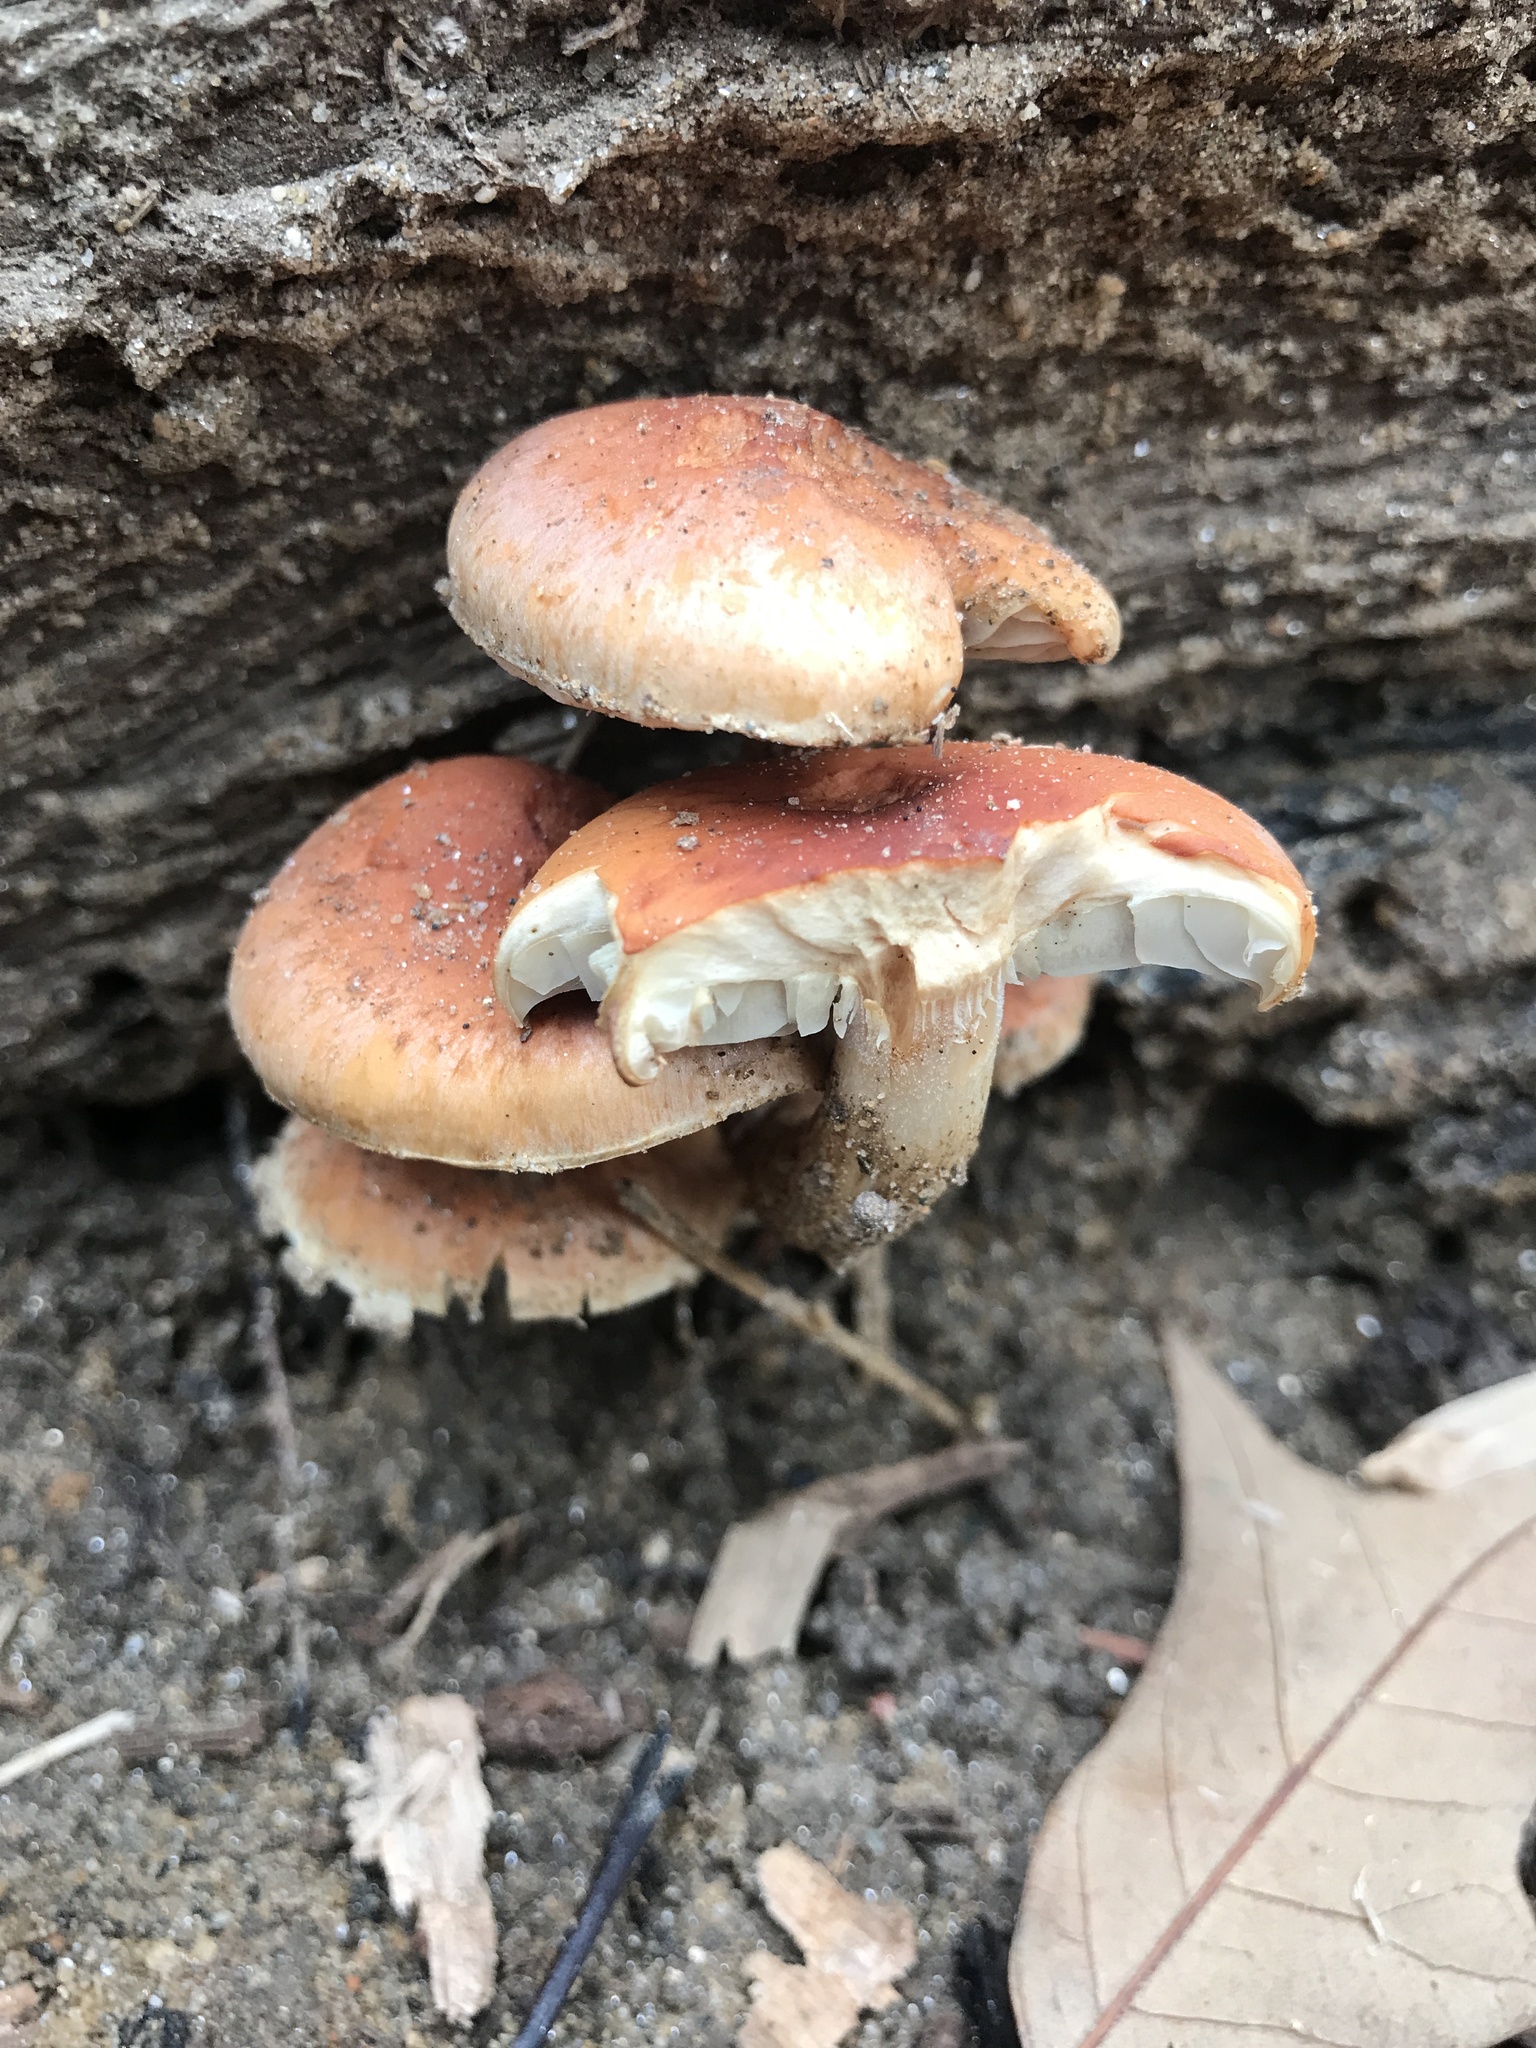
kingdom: Fungi
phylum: Basidiomycota
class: Agaricomycetes
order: Agaricales
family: Strophariaceae
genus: Hypholoma
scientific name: Hypholoma lateritium
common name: Brick caps
